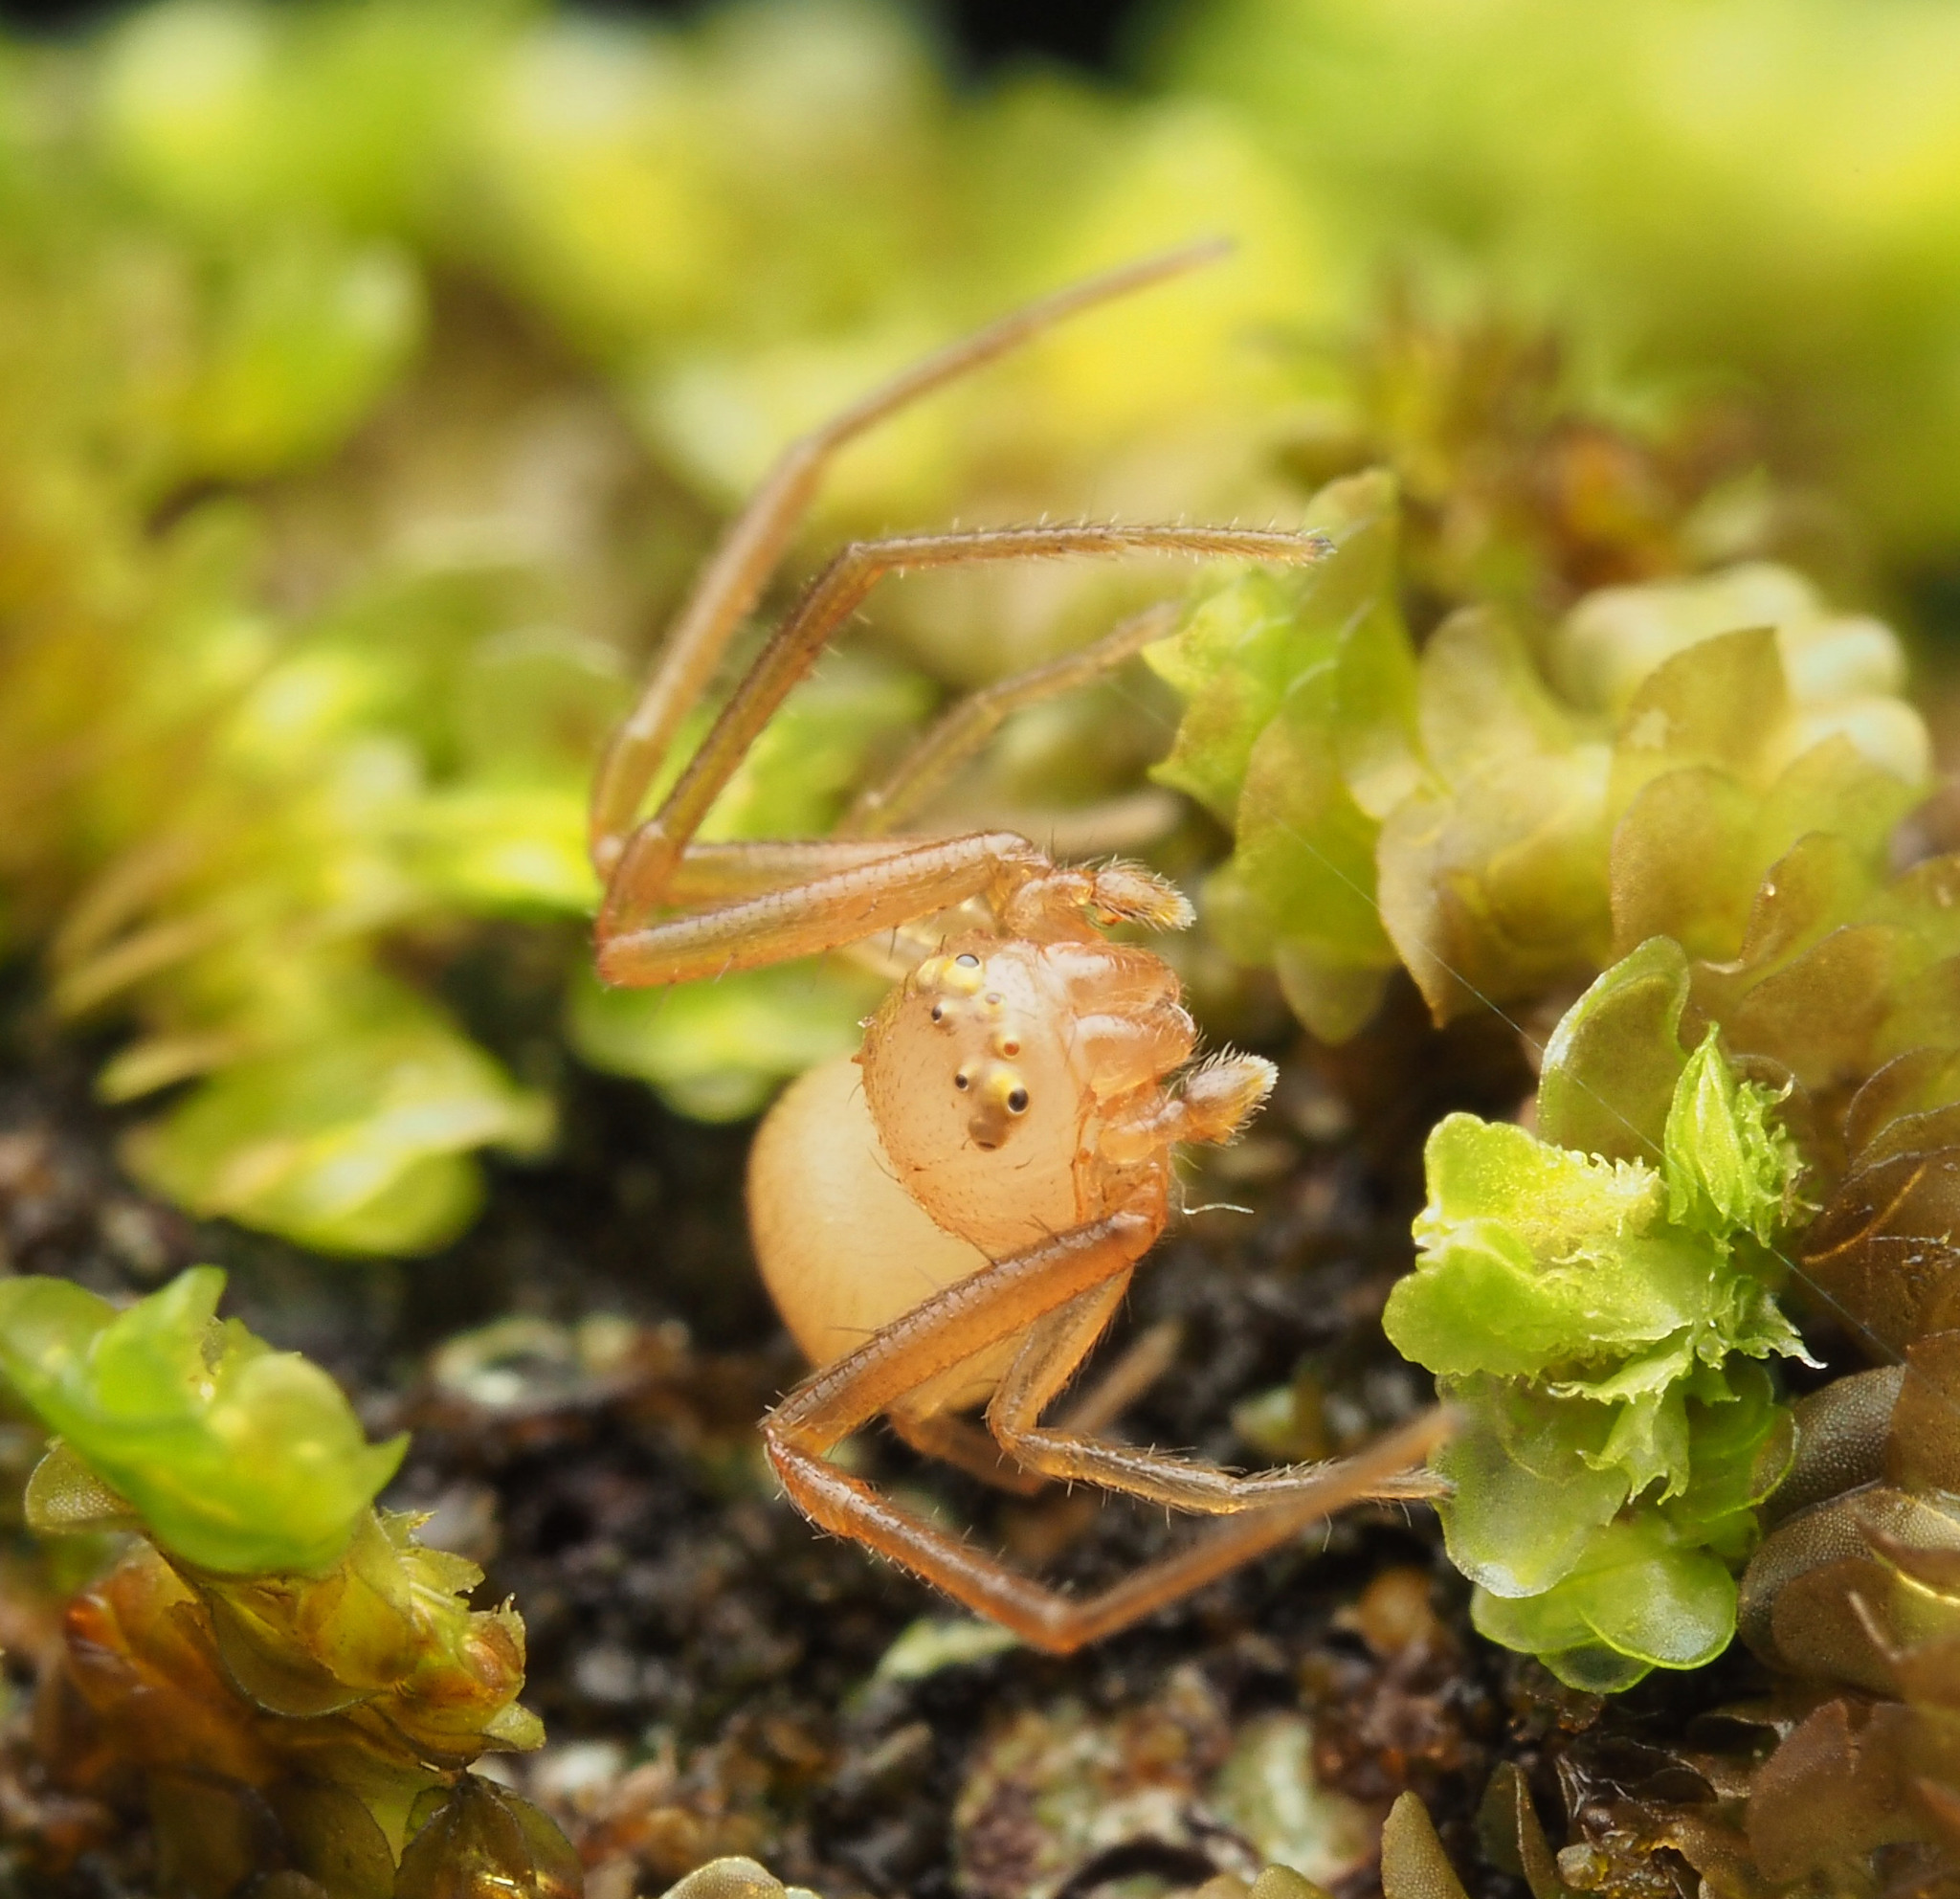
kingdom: Animalia
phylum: Arthropoda
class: Arachnida
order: Araneae
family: Thomisidae
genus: Mastira
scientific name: Mastira adusta
